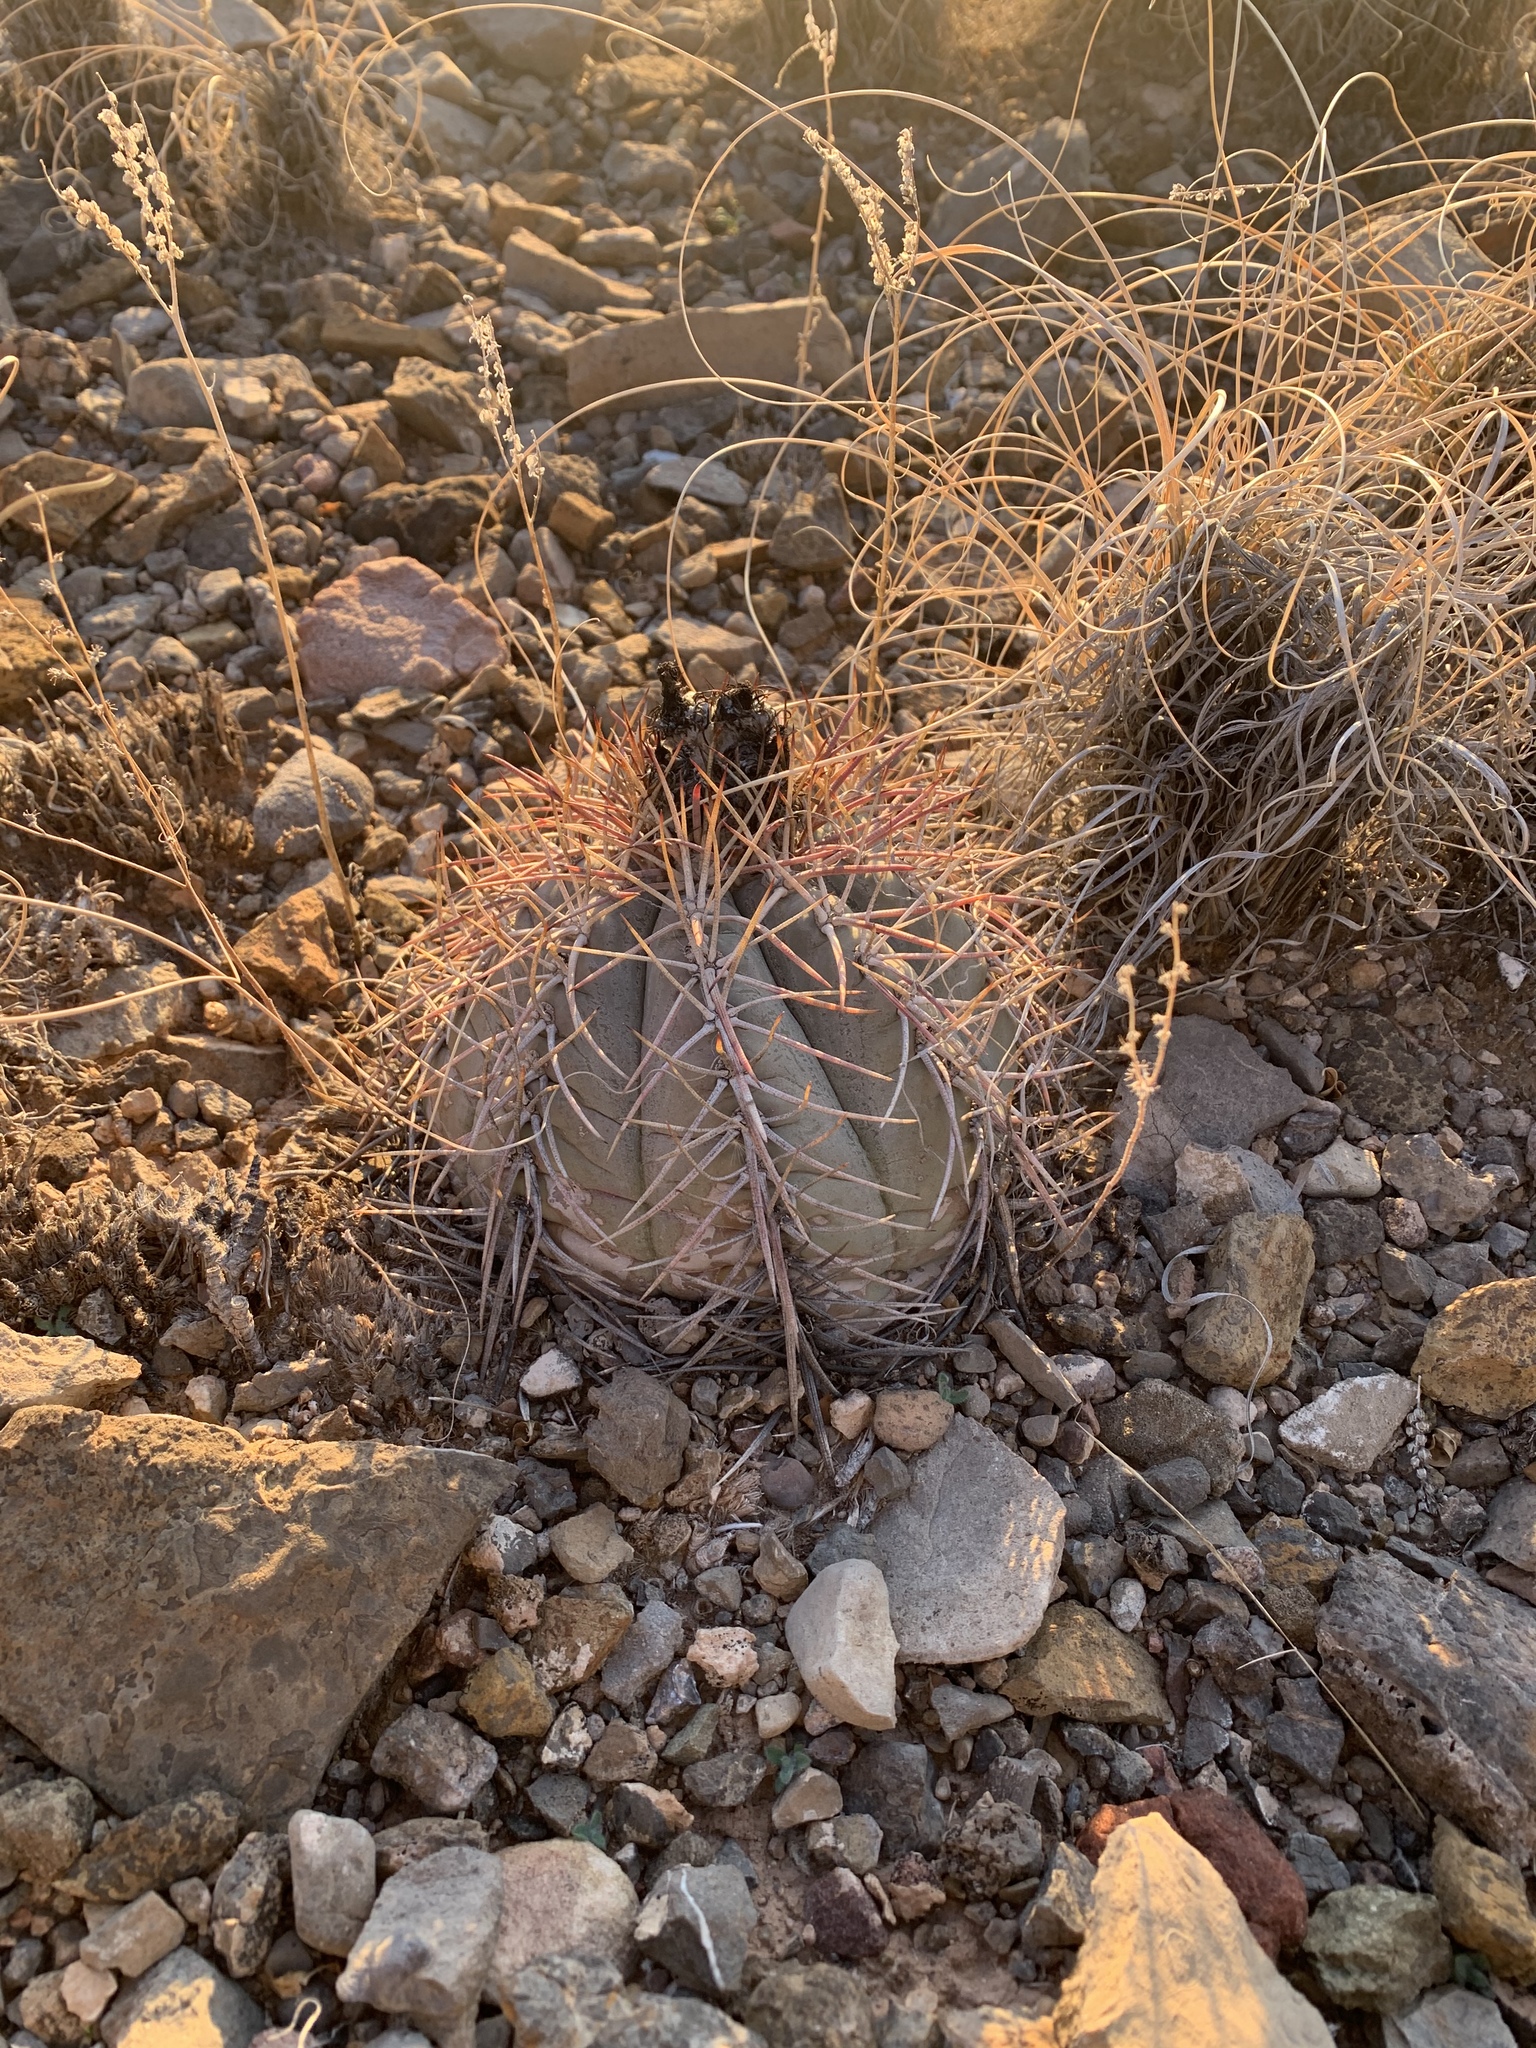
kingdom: Plantae
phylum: Tracheophyta
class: Magnoliopsida
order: Caryophyllales
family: Cactaceae
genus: Echinocactus
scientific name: Echinocactus horizonthalonius
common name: Devilshead
